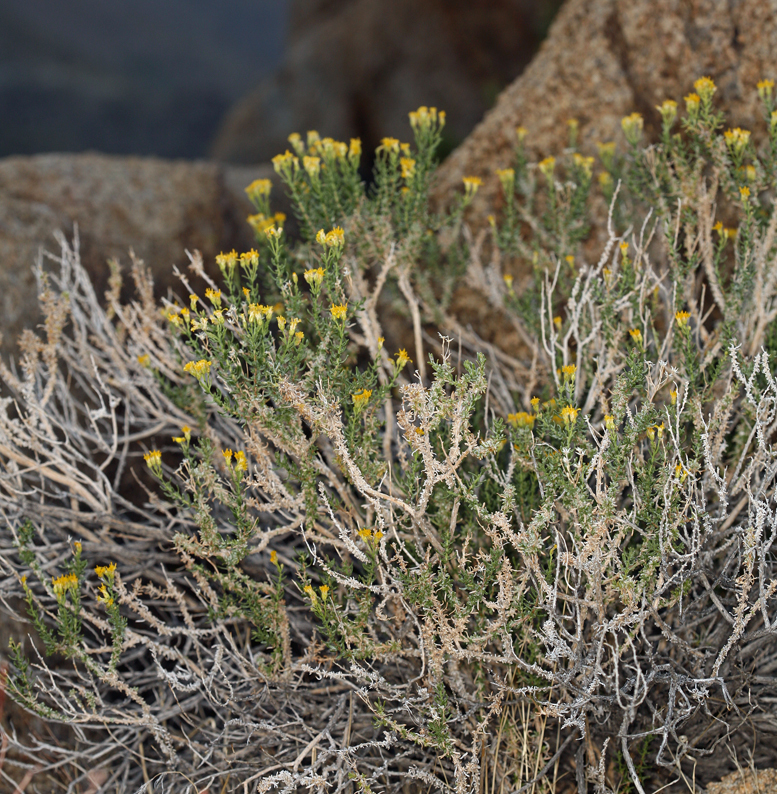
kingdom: Plantae
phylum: Tracheophyta
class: Magnoliopsida
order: Asterales
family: Asteraceae
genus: Ericameria
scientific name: Ericameria cooperi
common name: Cooper's goldenbush
